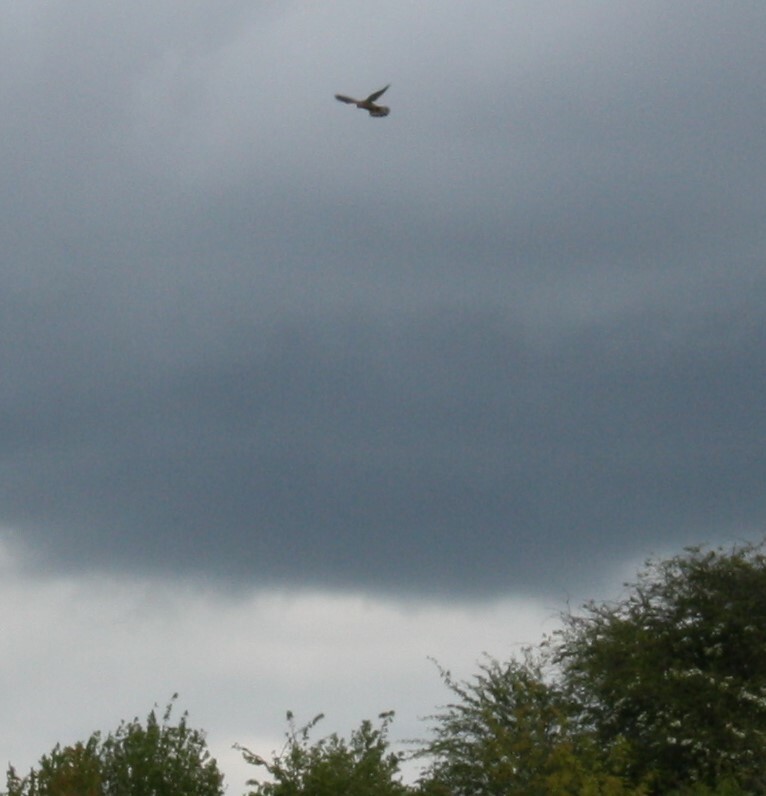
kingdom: Animalia
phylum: Chordata
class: Aves
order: Falconiformes
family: Falconidae
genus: Falco
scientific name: Falco tinnunculus
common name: Common kestrel
